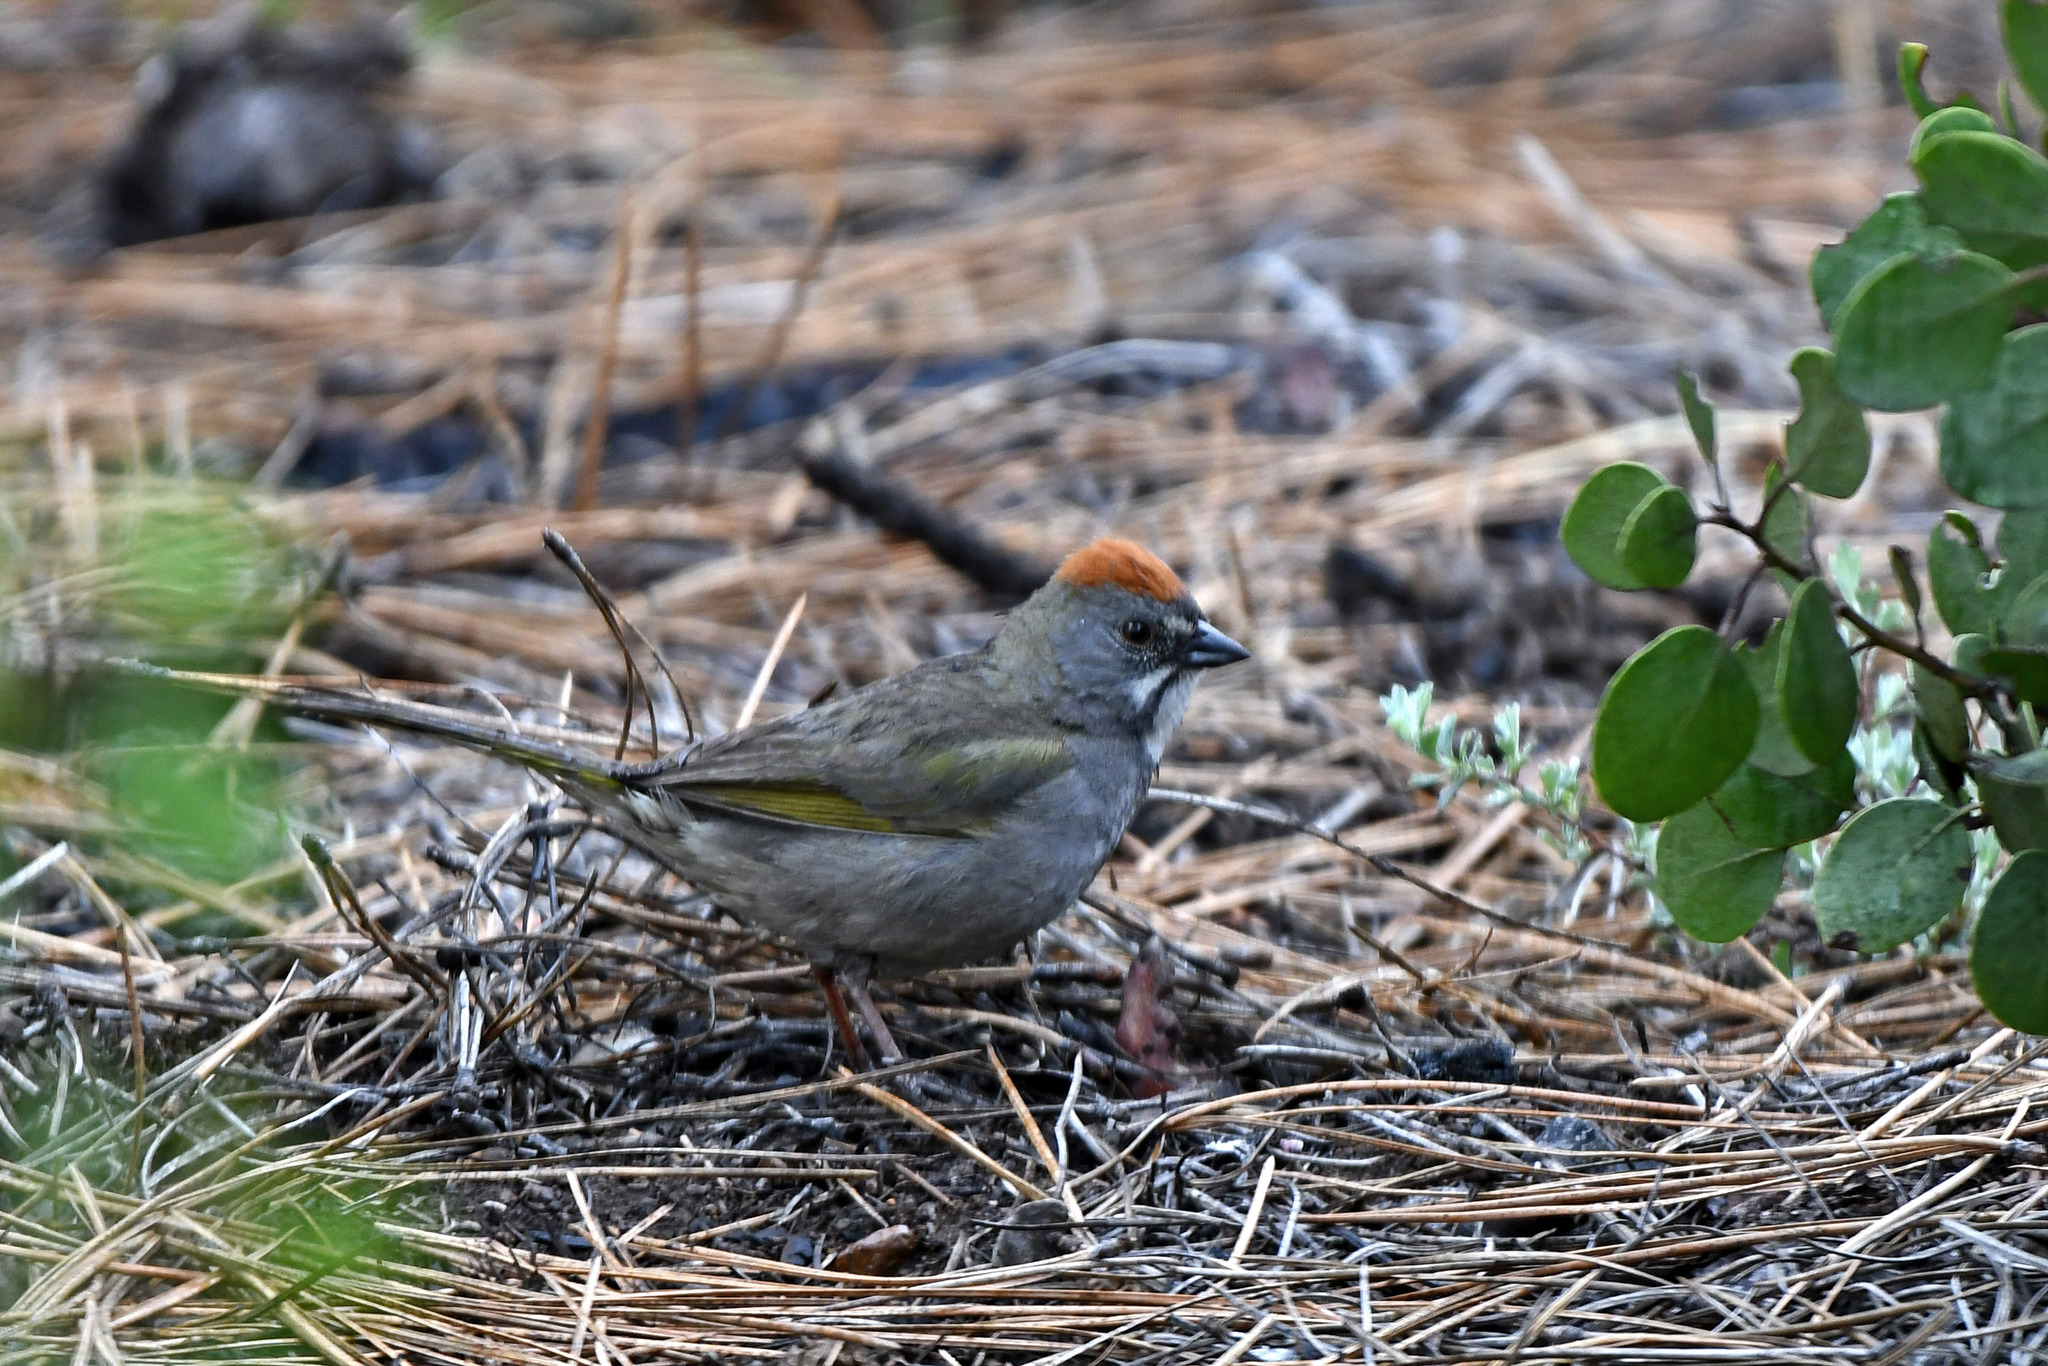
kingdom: Animalia
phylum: Chordata
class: Aves
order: Passeriformes
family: Passerellidae
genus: Pipilo
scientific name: Pipilo chlorurus
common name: Green-tailed towhee
